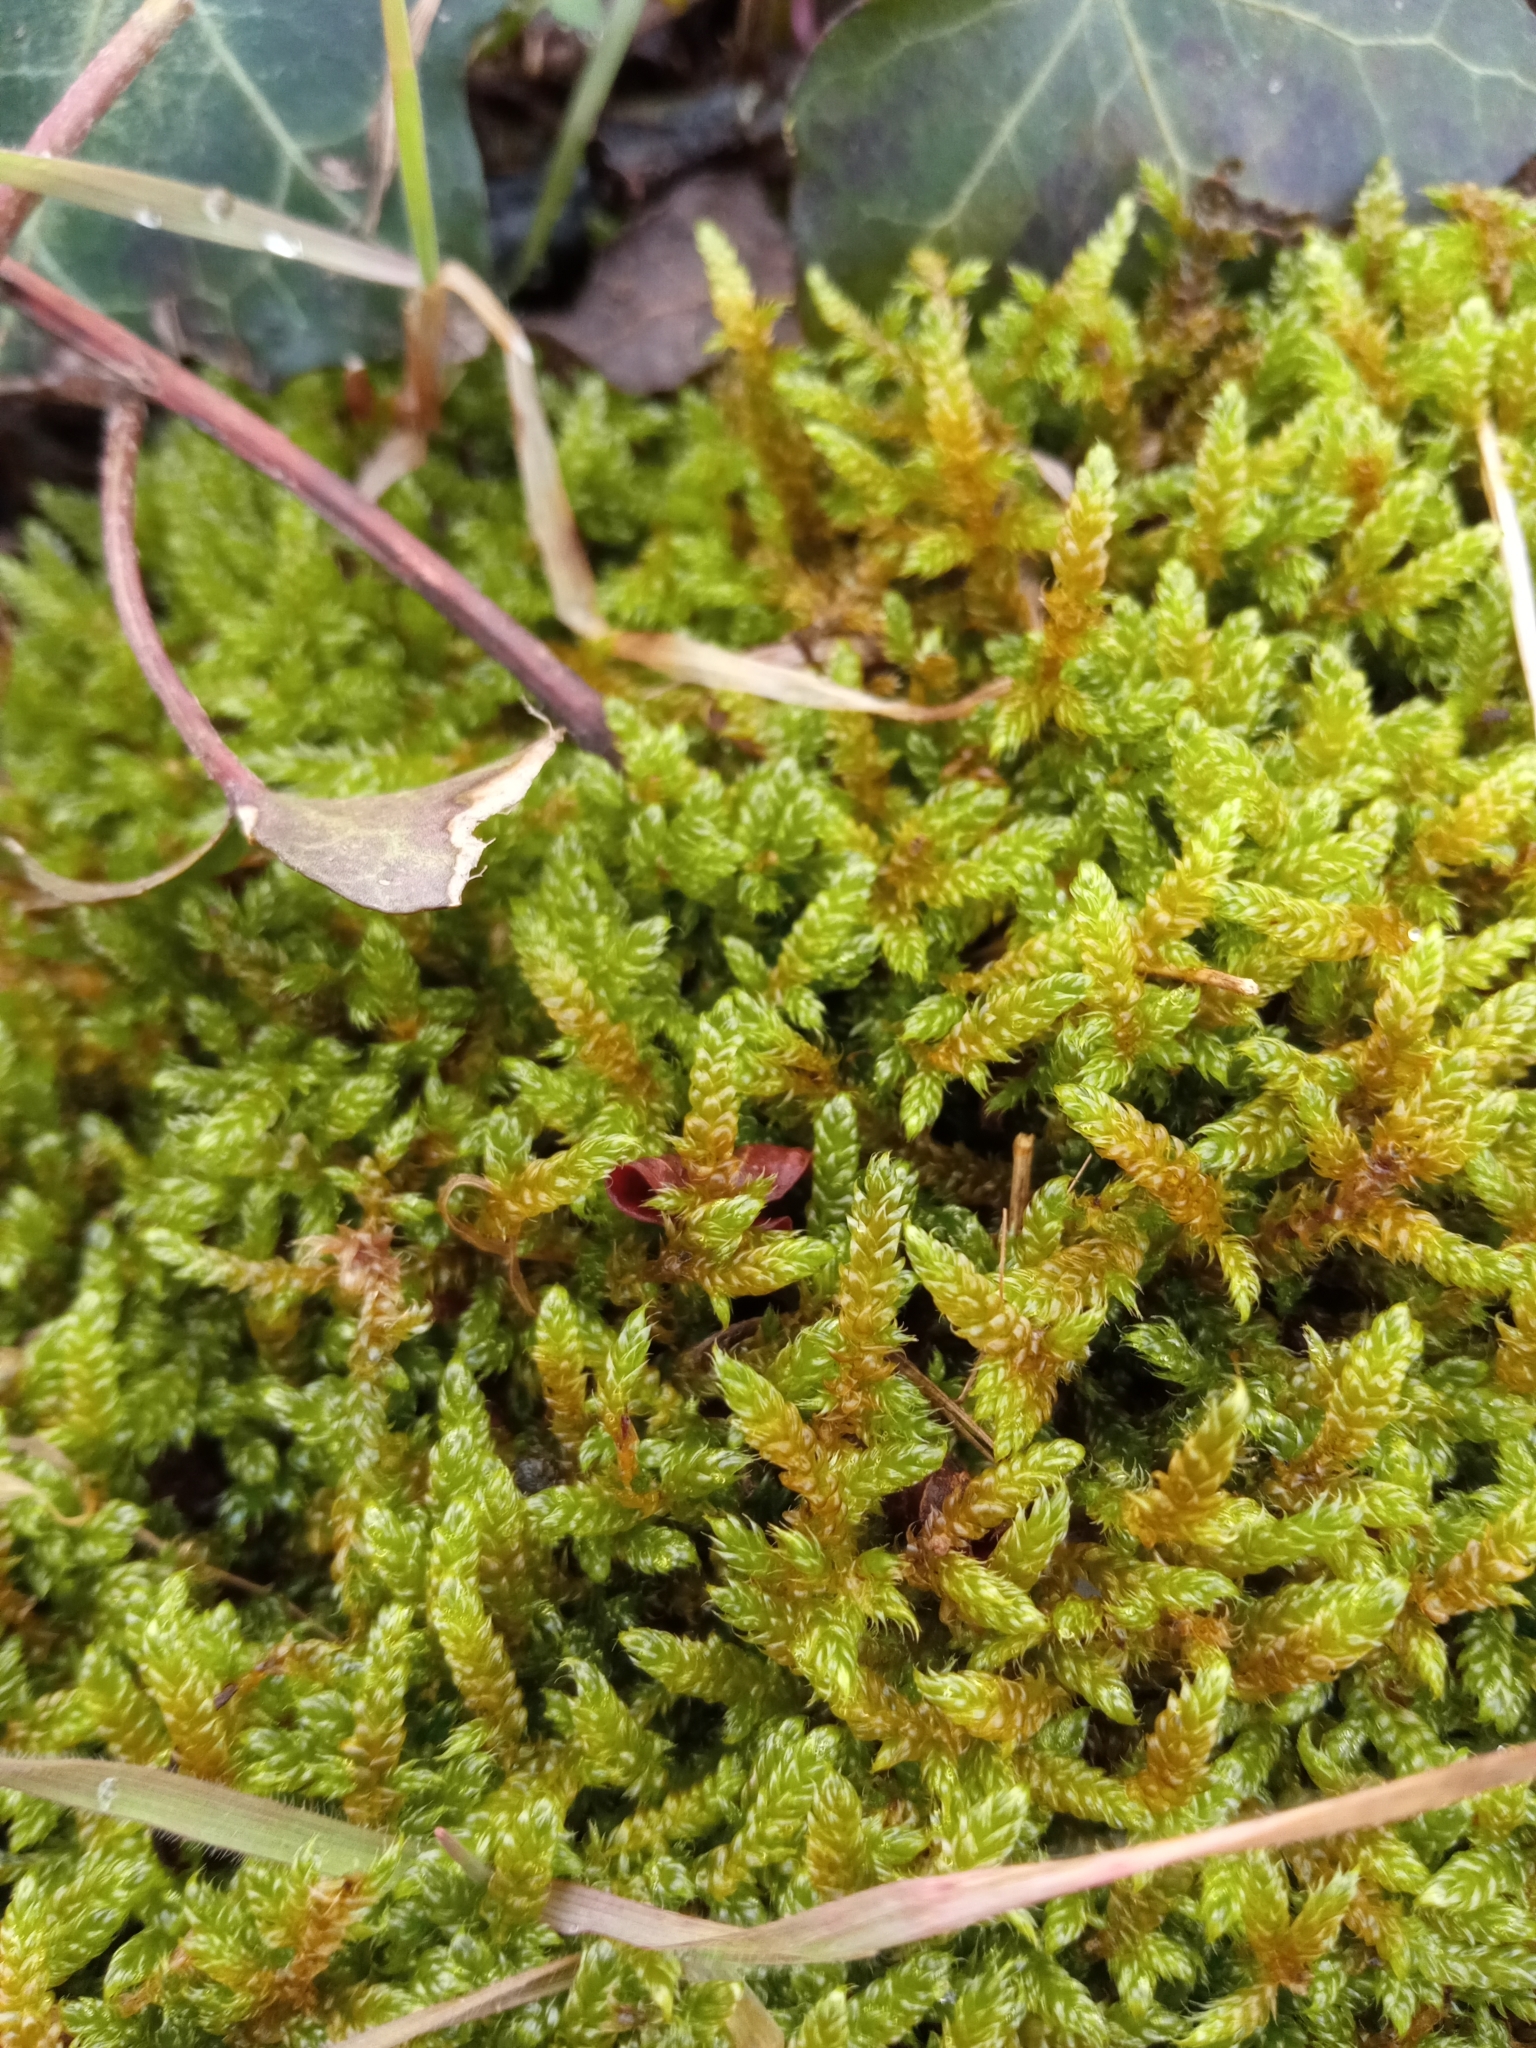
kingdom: Plantae
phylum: Bryophyta
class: Bryopsida
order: Hypnales
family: Hypnaceae
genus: Hypnum
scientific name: Hypnum cupressiforme
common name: Cypress-leaved plait-moss
